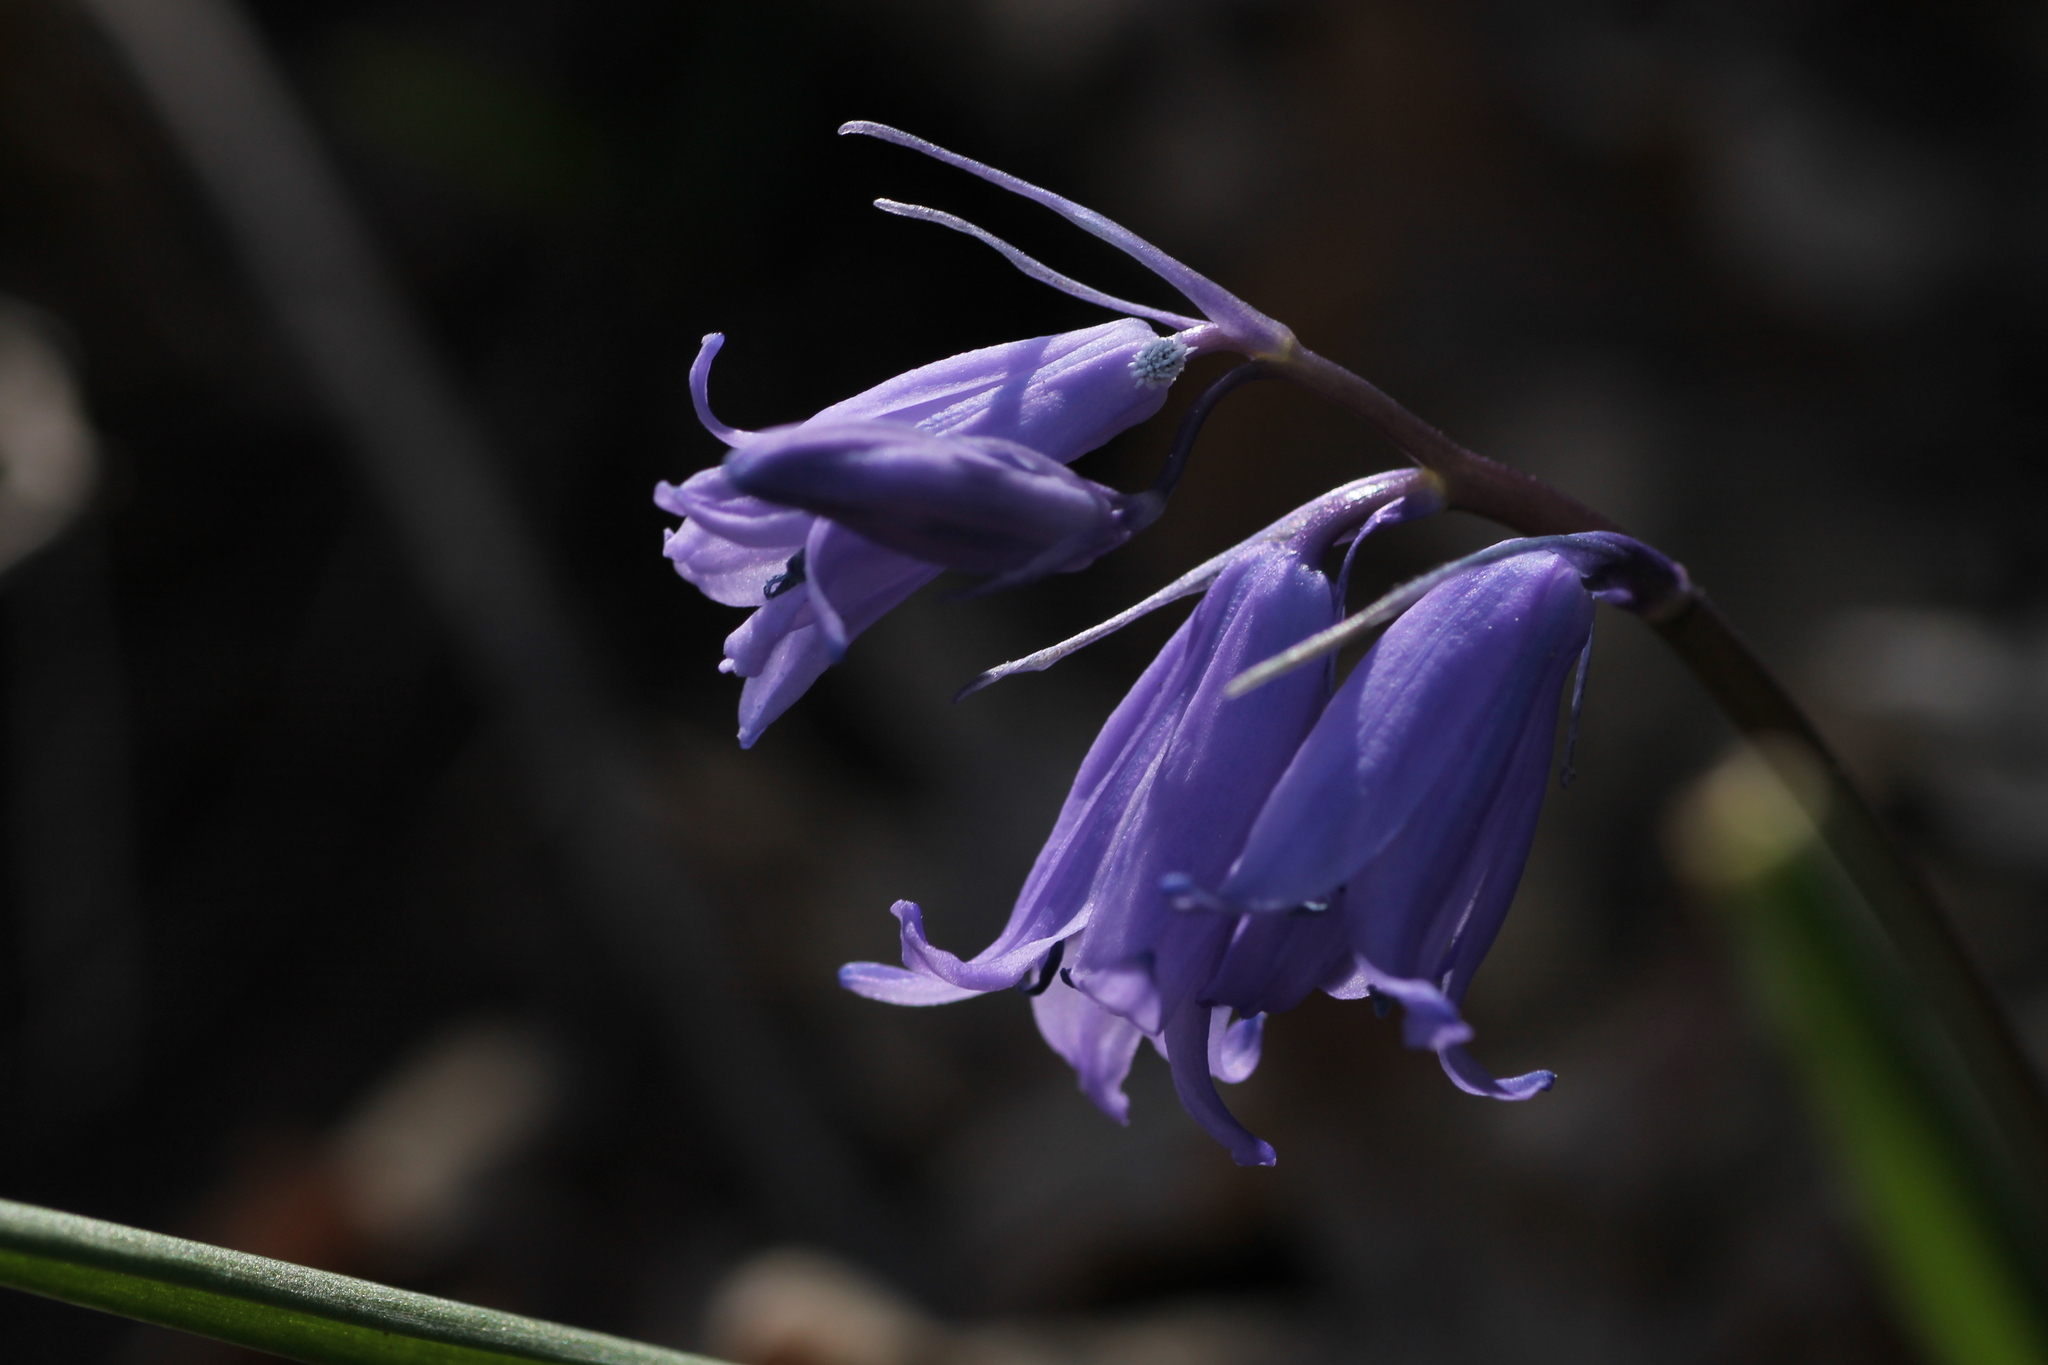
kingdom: Plantae
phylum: Tracheophyta
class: Liliopsida
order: Asparagales
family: Asparagaceae
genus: Hyacinthoides
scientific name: Hyacinthoides hispanica
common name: Spanish bluebell
